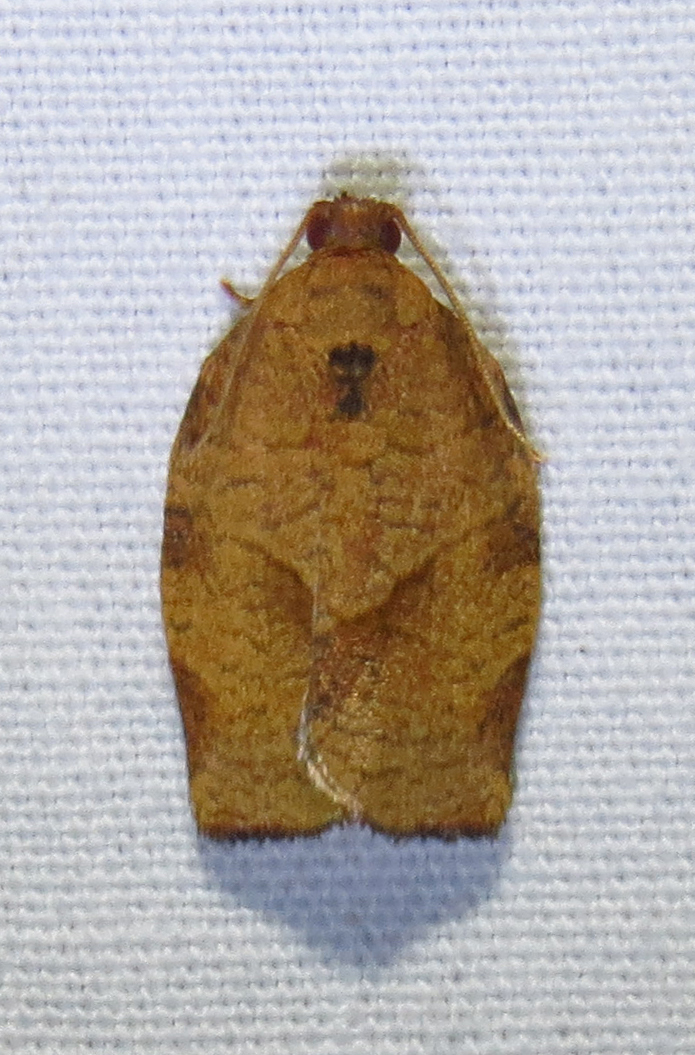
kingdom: Animalia
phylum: Arthropoda
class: Insecta
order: Lepidoptera
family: Tortricidae
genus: Choristoneura
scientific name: Choristoneura rosaceana
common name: Oblique-banded leafroller moth
